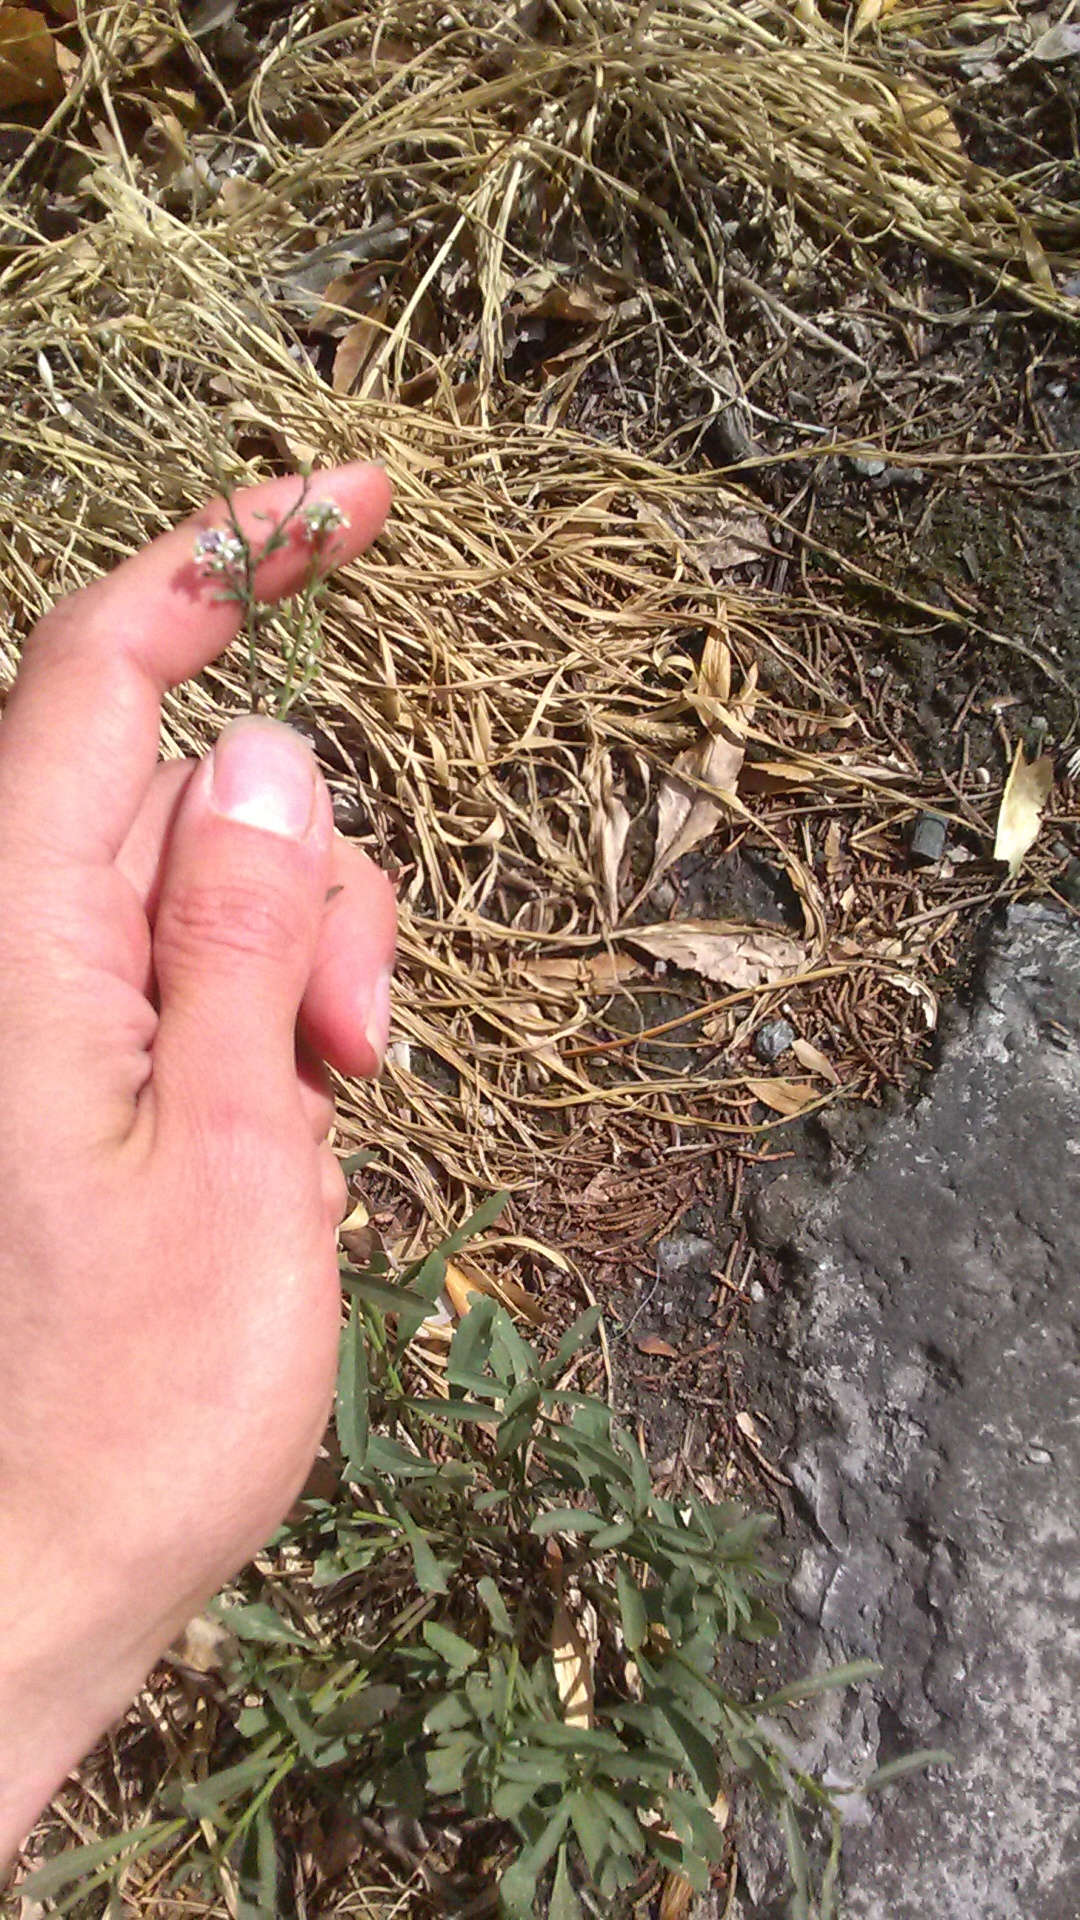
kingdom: Plantae
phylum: Tracheophyta
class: Magnoliopsida
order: Brassicales
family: Brassicaceae
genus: Lepidium
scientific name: Lepidium graminifolium
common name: Tall pepperwort
